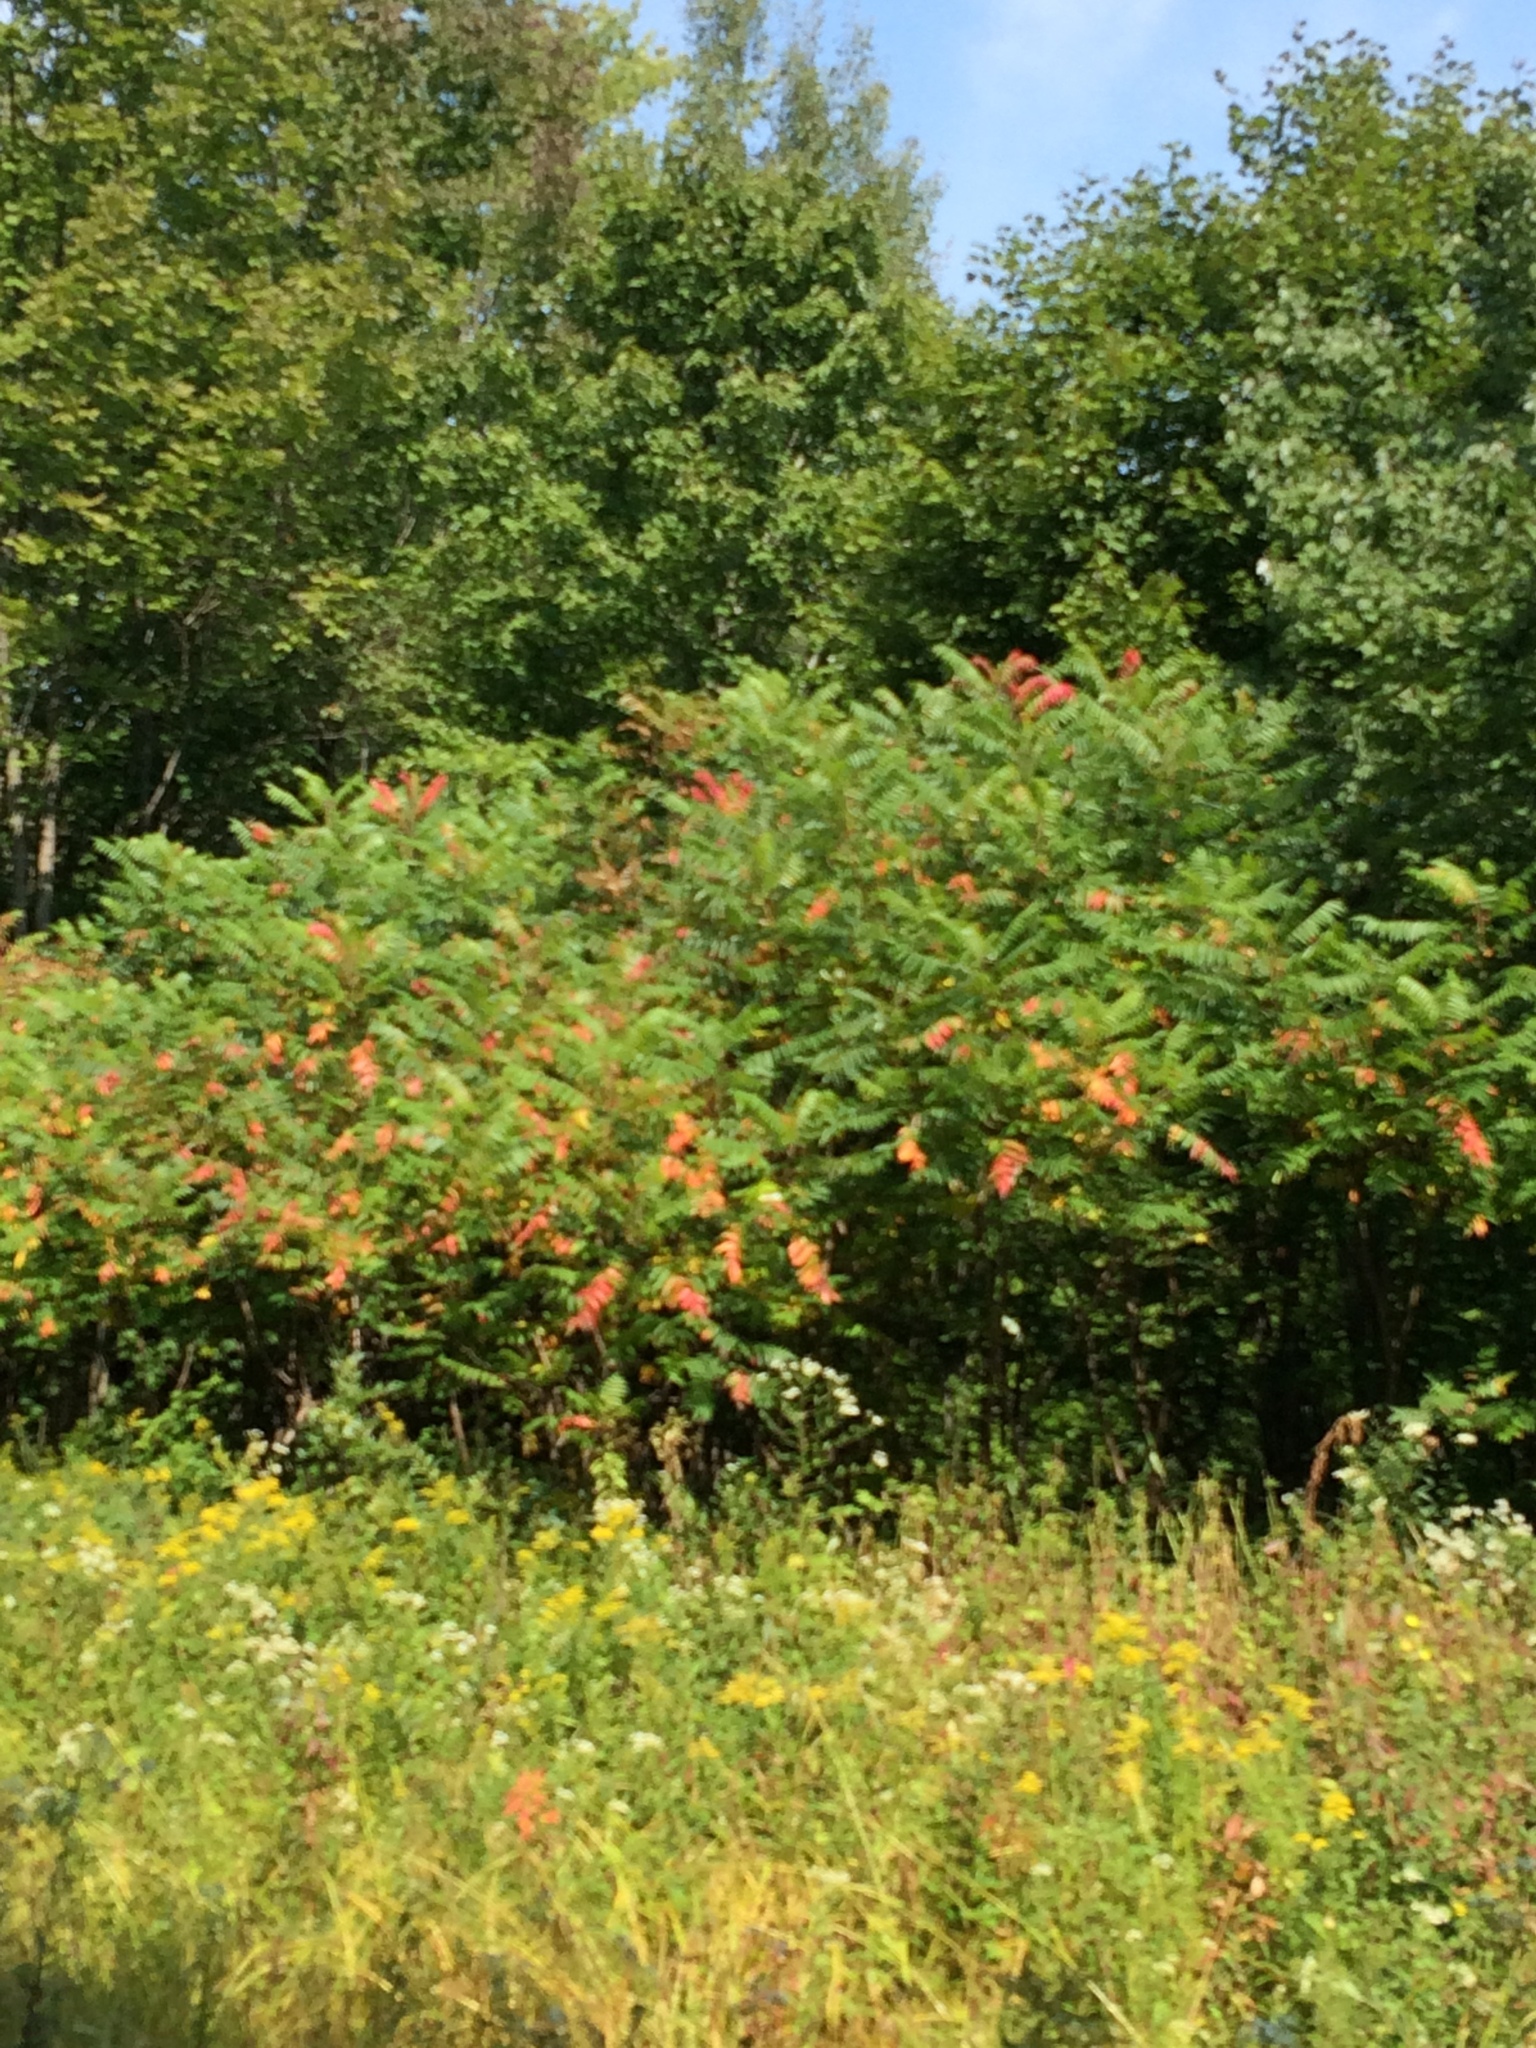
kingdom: Plantae
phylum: Tracheophyta
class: Magnoliopsida
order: Sapindales
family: Anacardiaceae
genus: Rhus
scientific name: Rhus typhina
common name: Staghorn sumac
